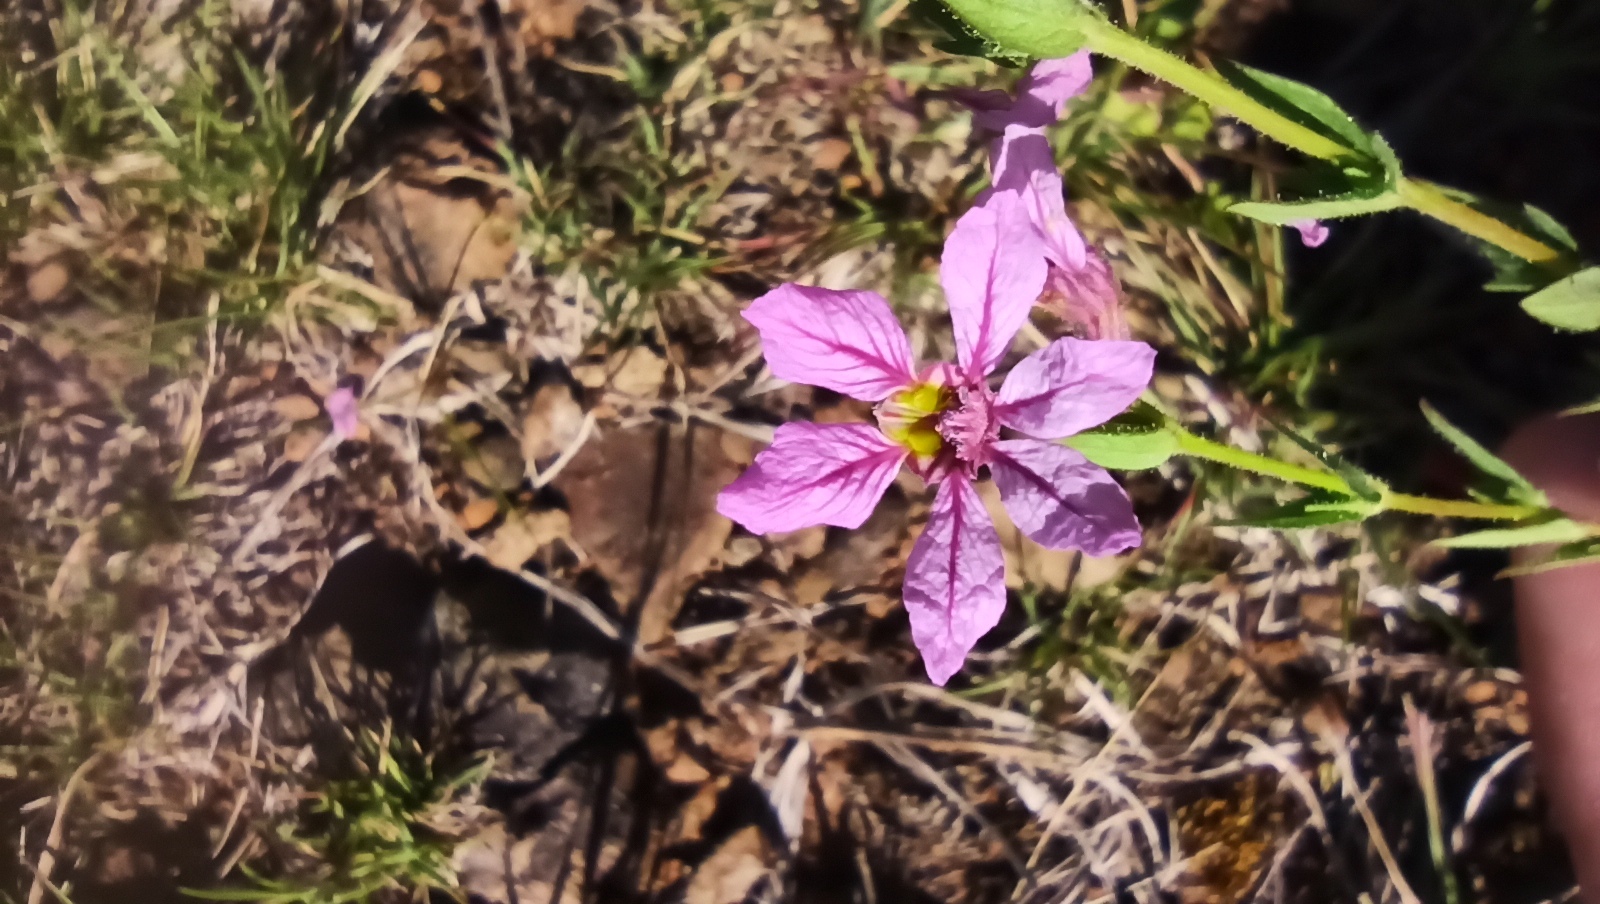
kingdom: Plantae
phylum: Tracheophyta
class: Magnoliopsida
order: Myrtales
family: Lythraceae
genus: Cuphea
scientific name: Cuphea glutinosa
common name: Sticky waxweed
